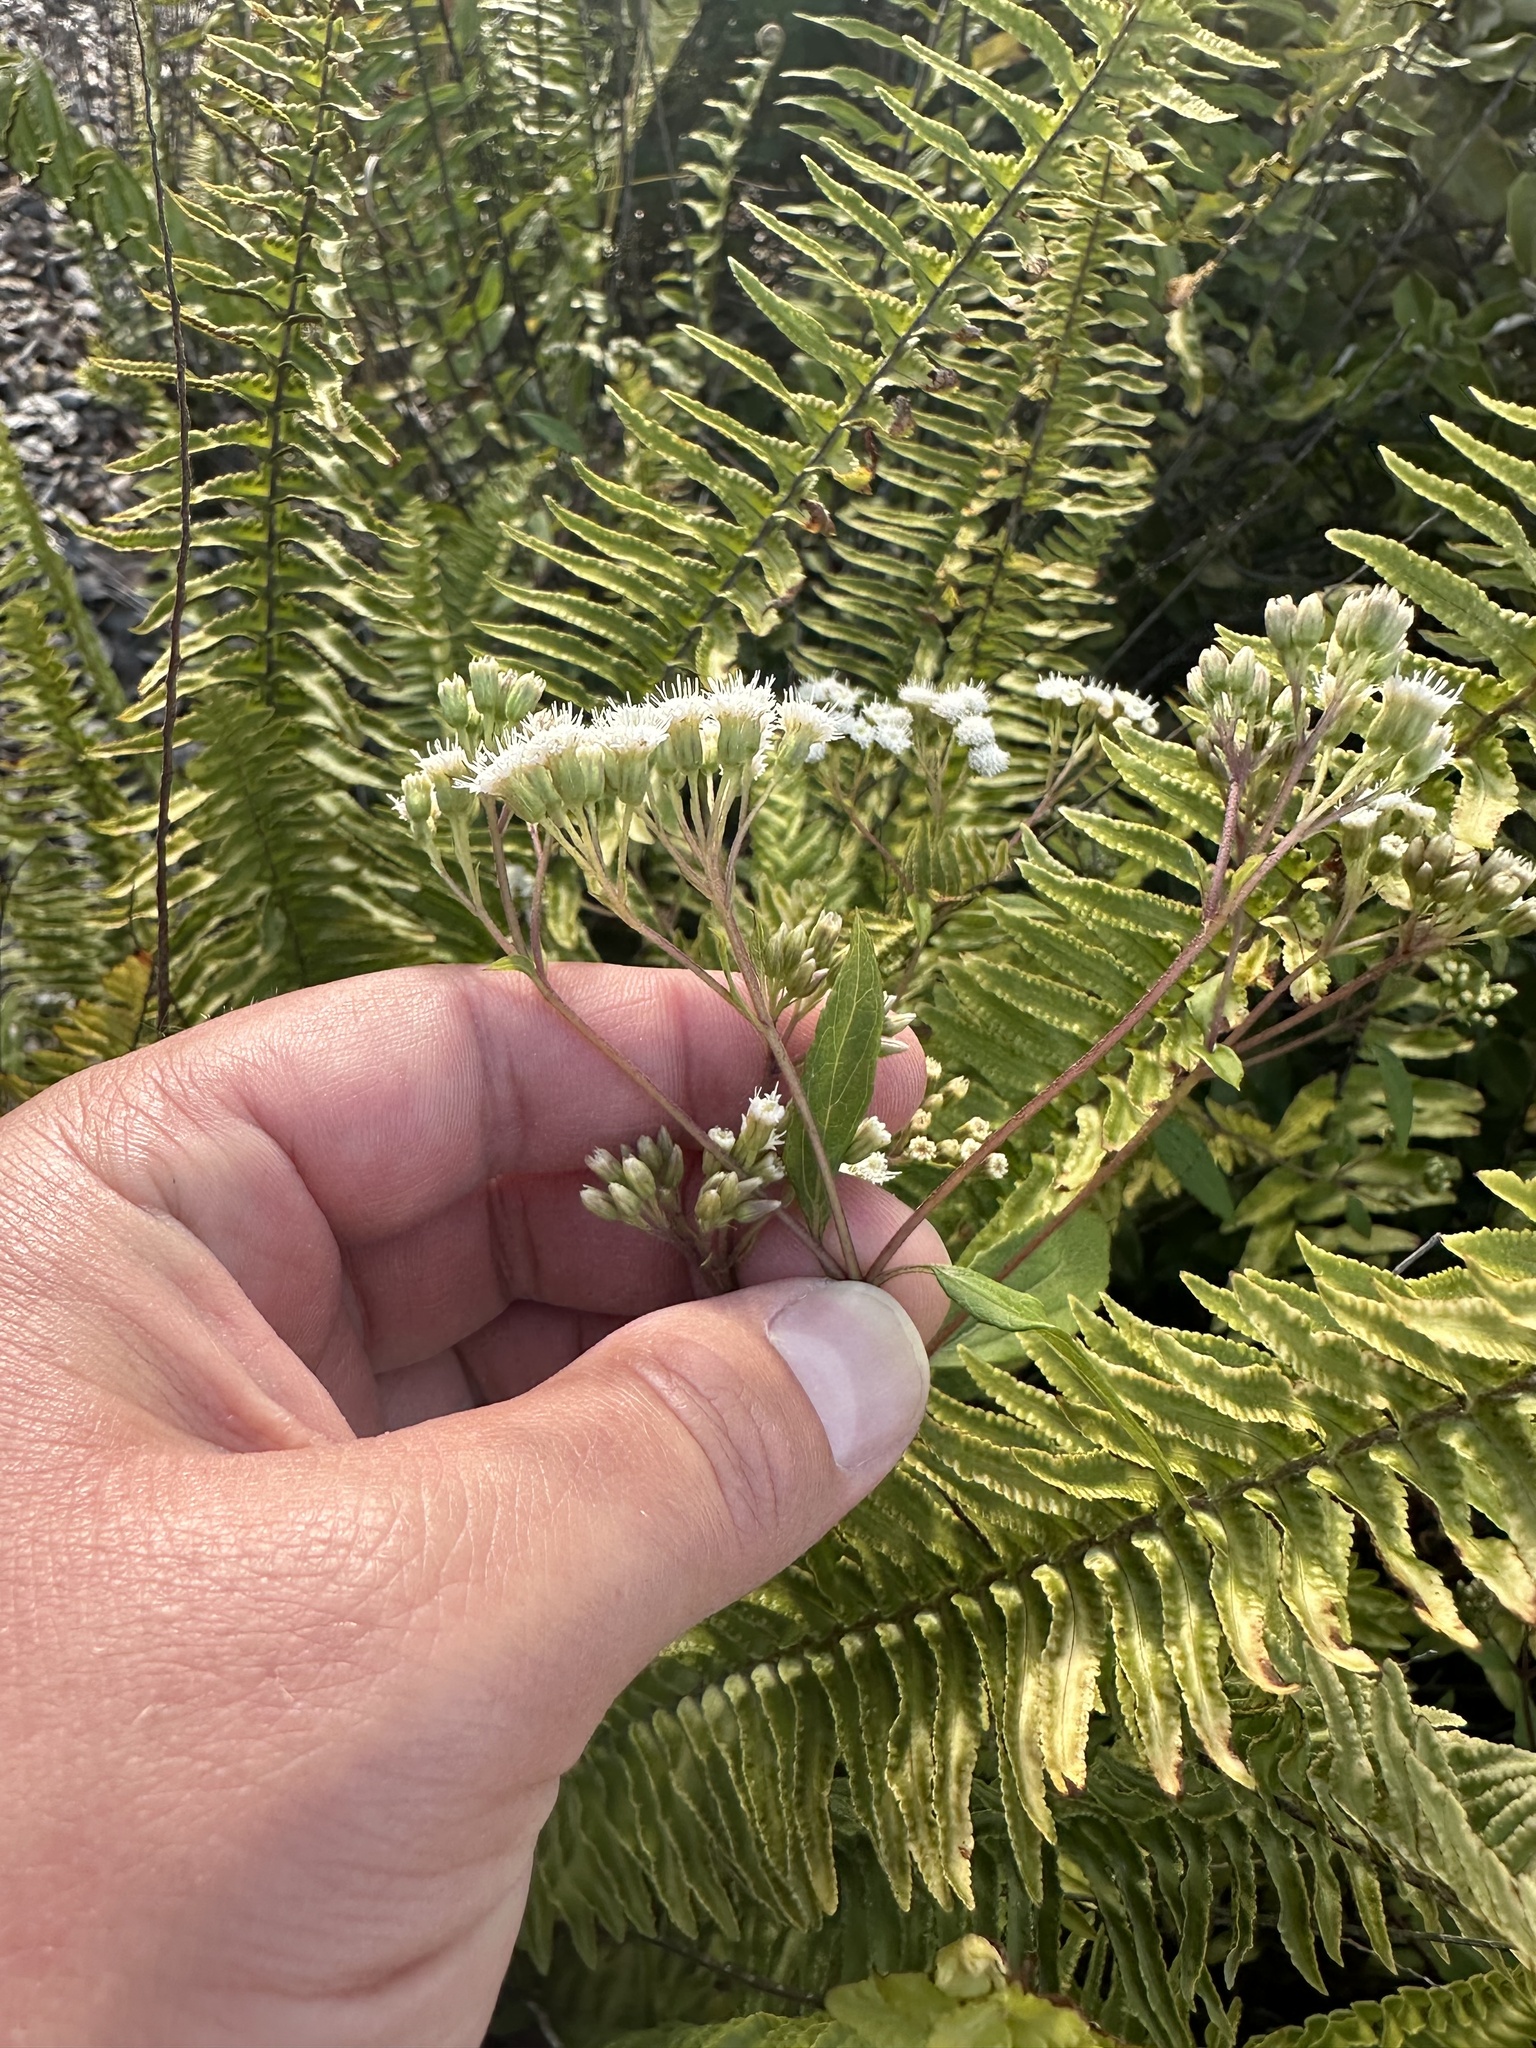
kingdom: Plantae
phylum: Tracheophyta
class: Magnoliopsida
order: Asterales
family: Asteraceae
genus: Ageratina
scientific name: Ageratina riparia
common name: Creeping croftonweed
